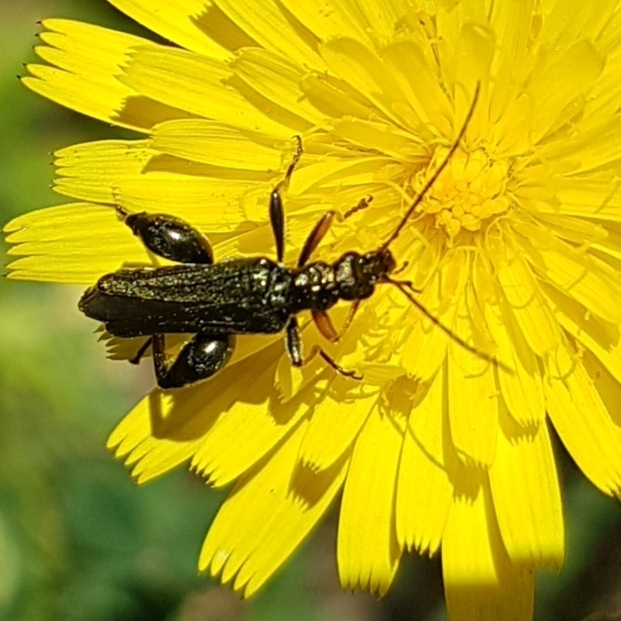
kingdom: Animalia
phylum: Arthropoda
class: Insecta
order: Coleoptera
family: Oedemeridae
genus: Oedemera
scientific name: Oedemera flavipes
